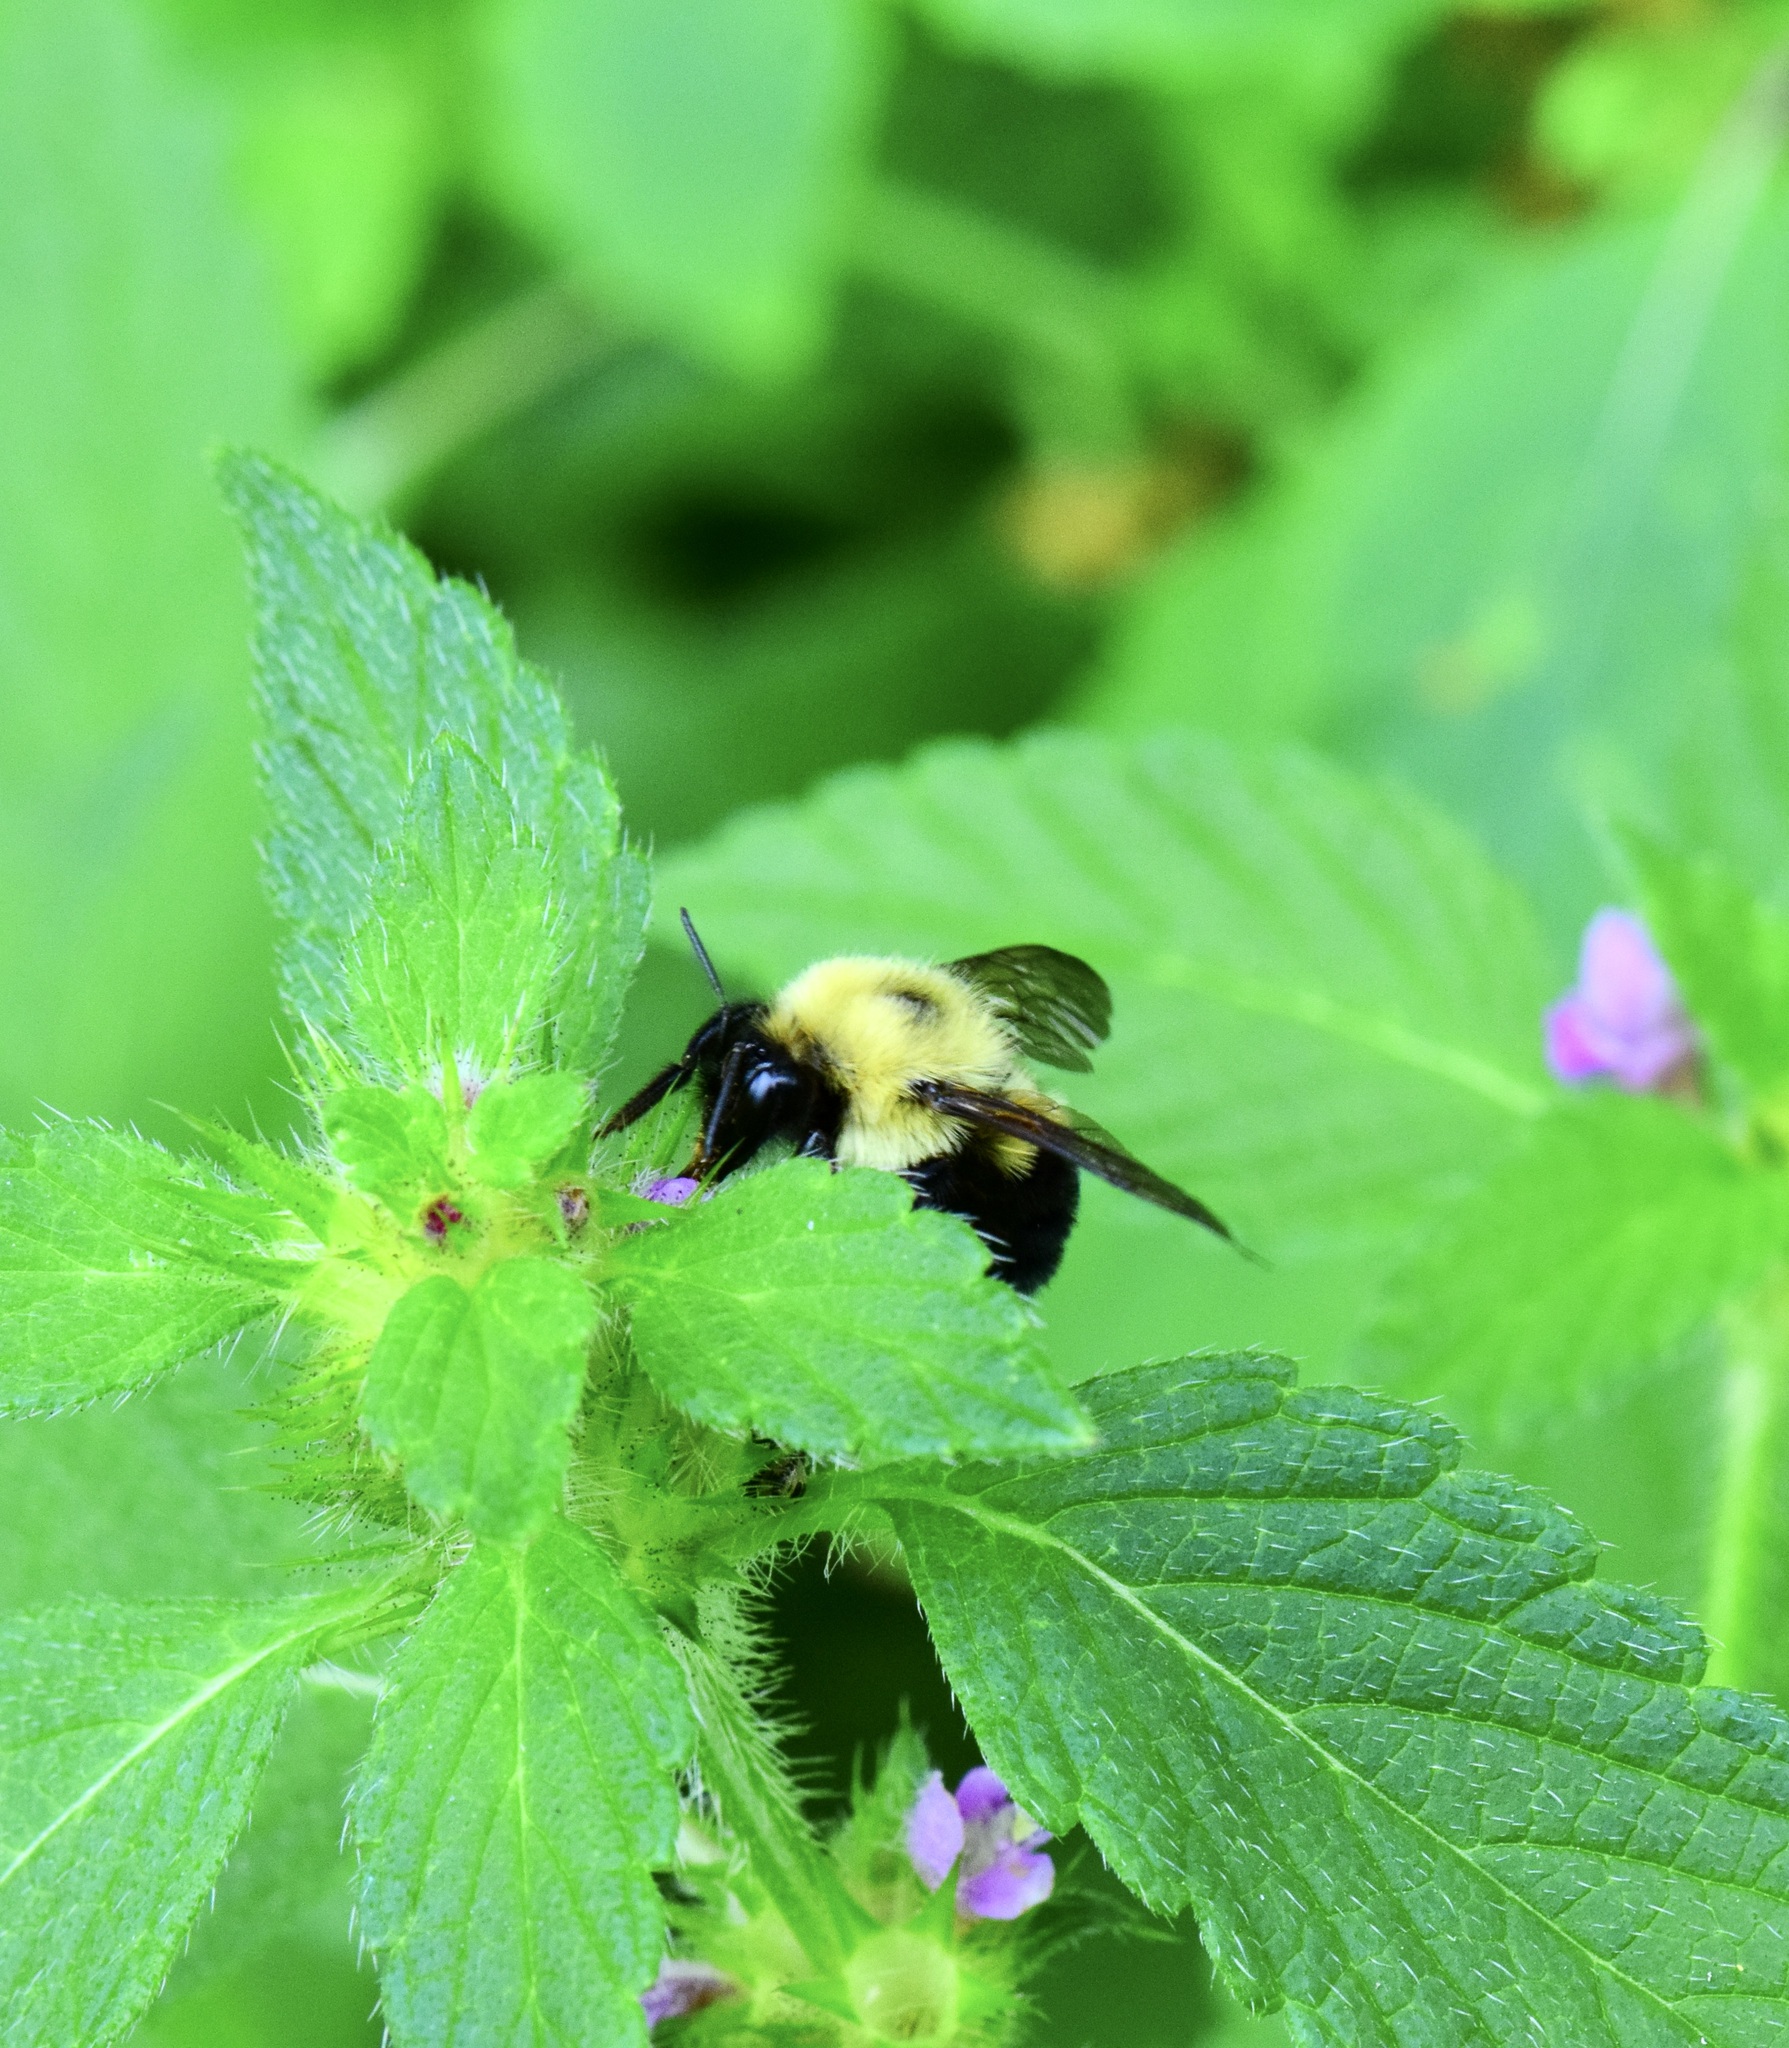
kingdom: Animalia
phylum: Arthropoda
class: Insecta
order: Hymenoptera
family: Apidae
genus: Bombus
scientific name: Bombus bimaculatus
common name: Two-spotted bumble bee
